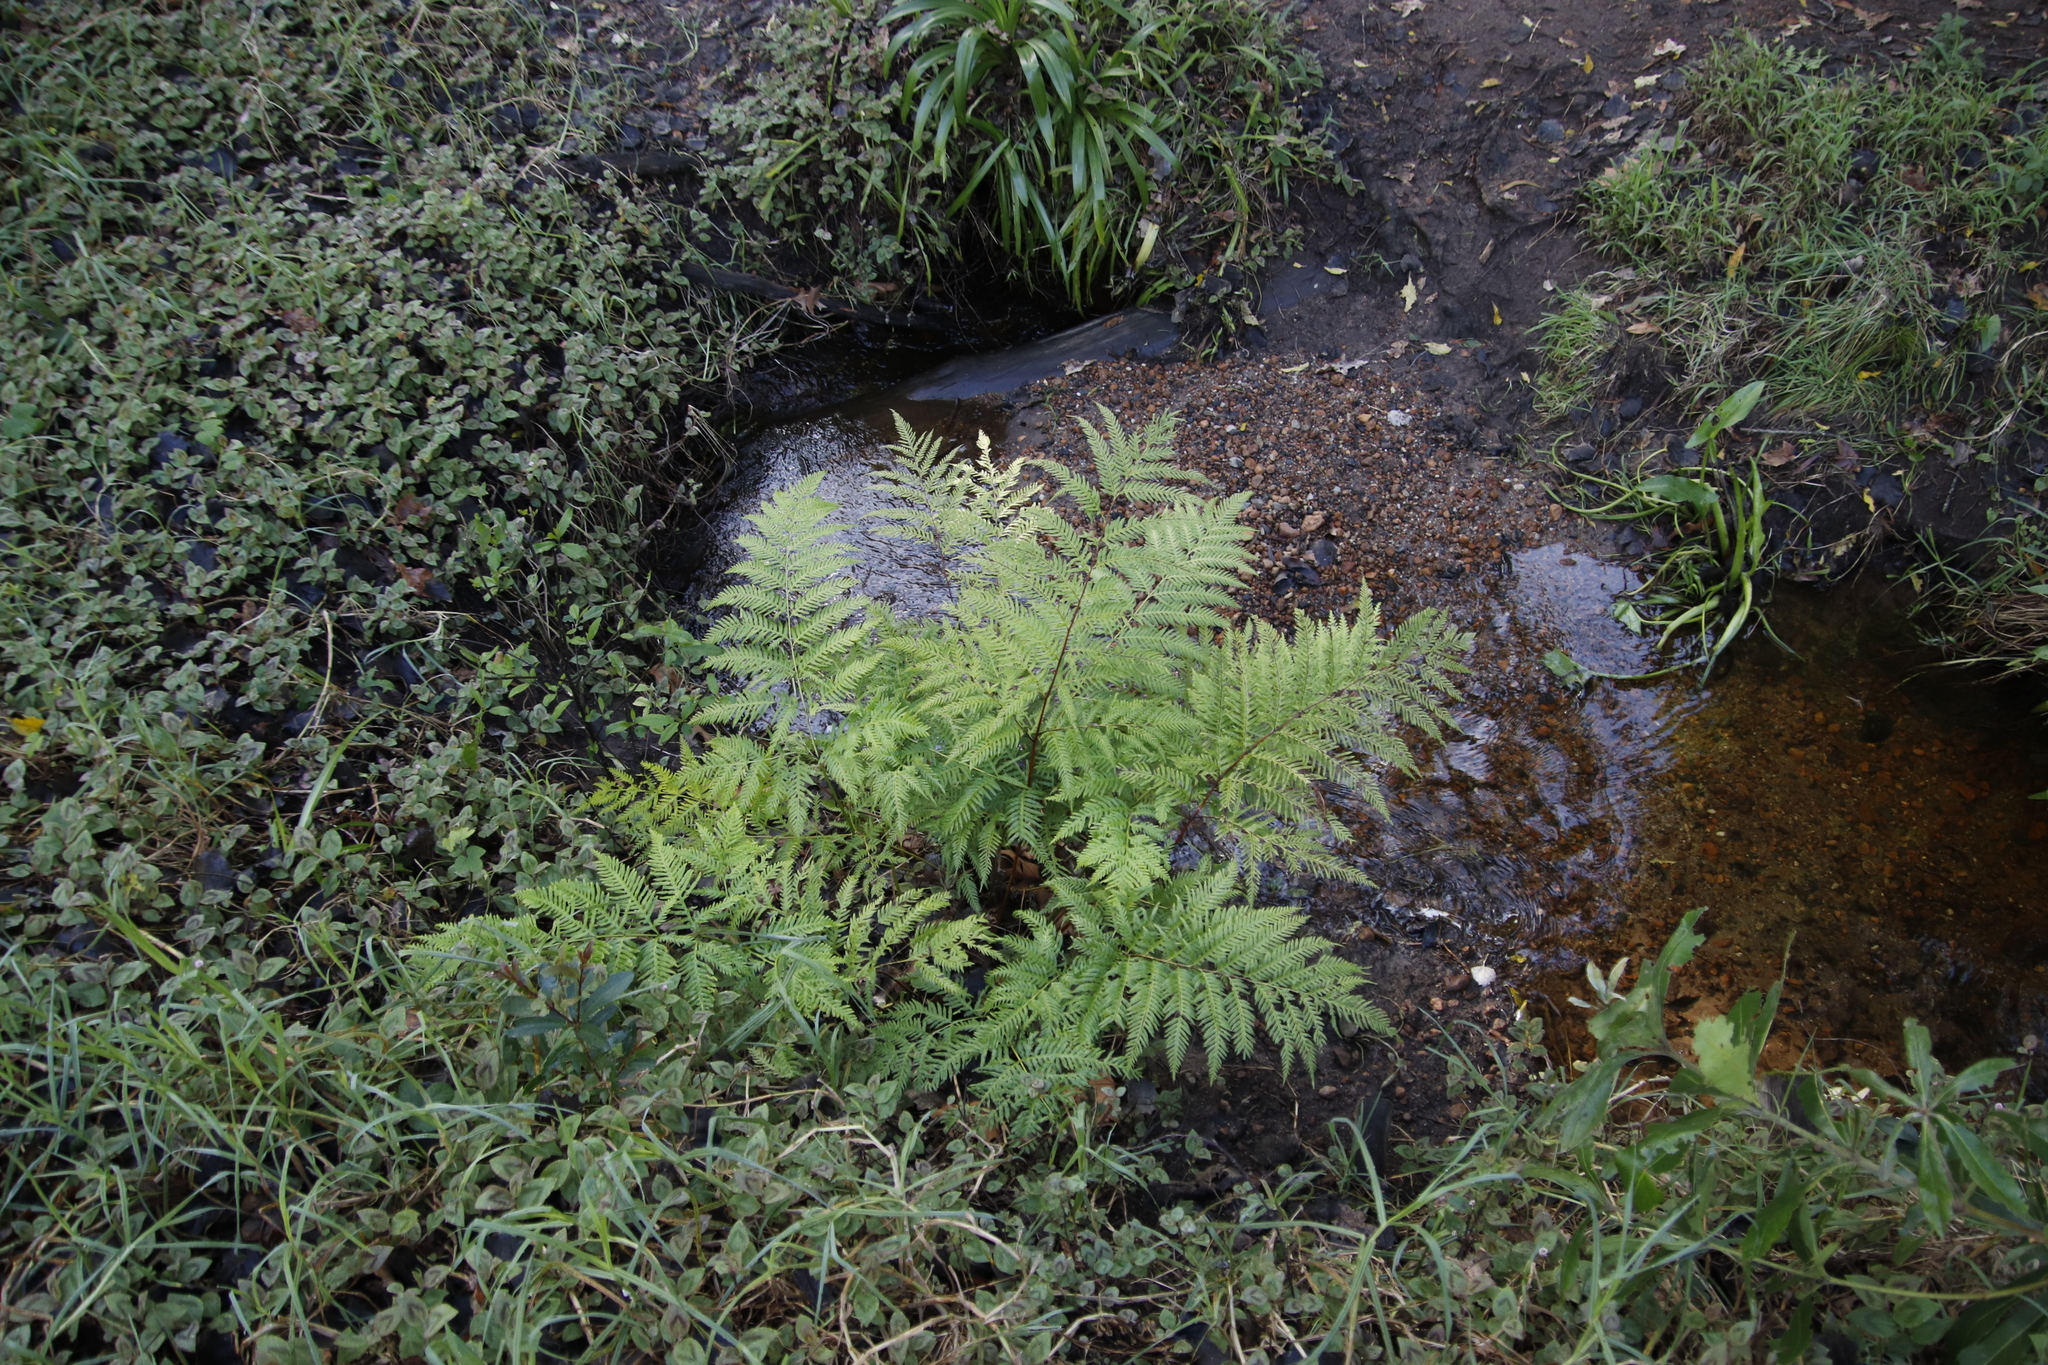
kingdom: Plantae
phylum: Tracheophyta
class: Polypodiopsida
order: Polypodiales
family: Pteridaceae
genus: Pteris
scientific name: Pteris dentata
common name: Toothed brake
